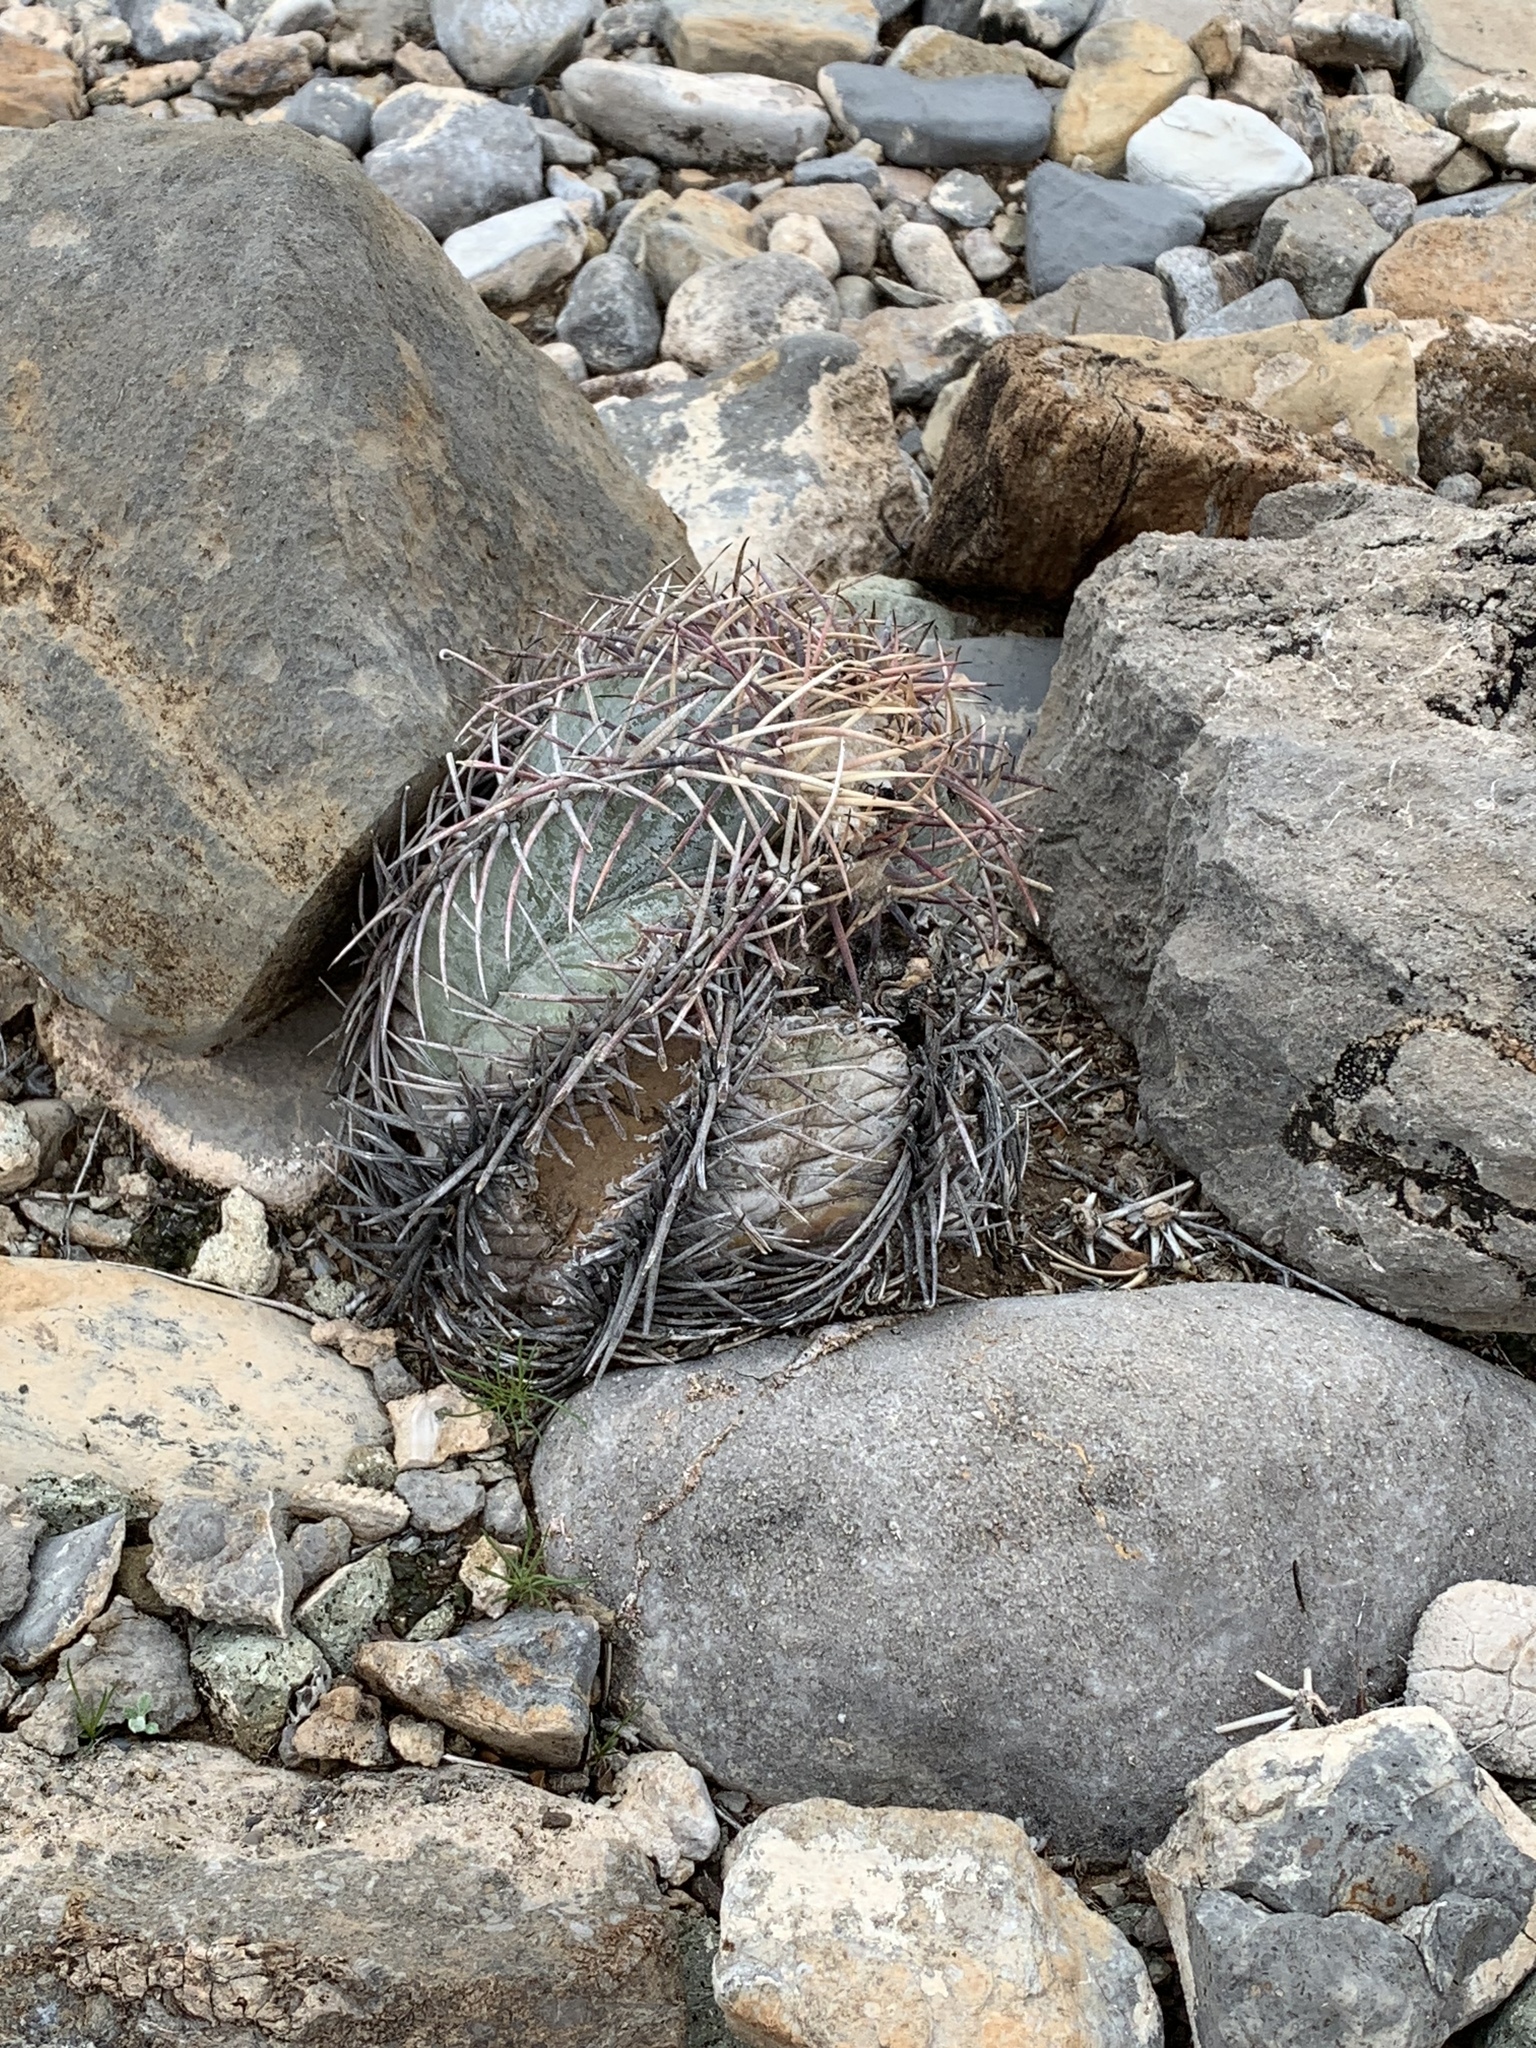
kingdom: Plantae
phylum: Tracheophyta
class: Magnoliopsida
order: Caryophyllales
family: Cactaceae
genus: Echinocactus
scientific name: Echinocactus horizonthalonius
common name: Devilshead
